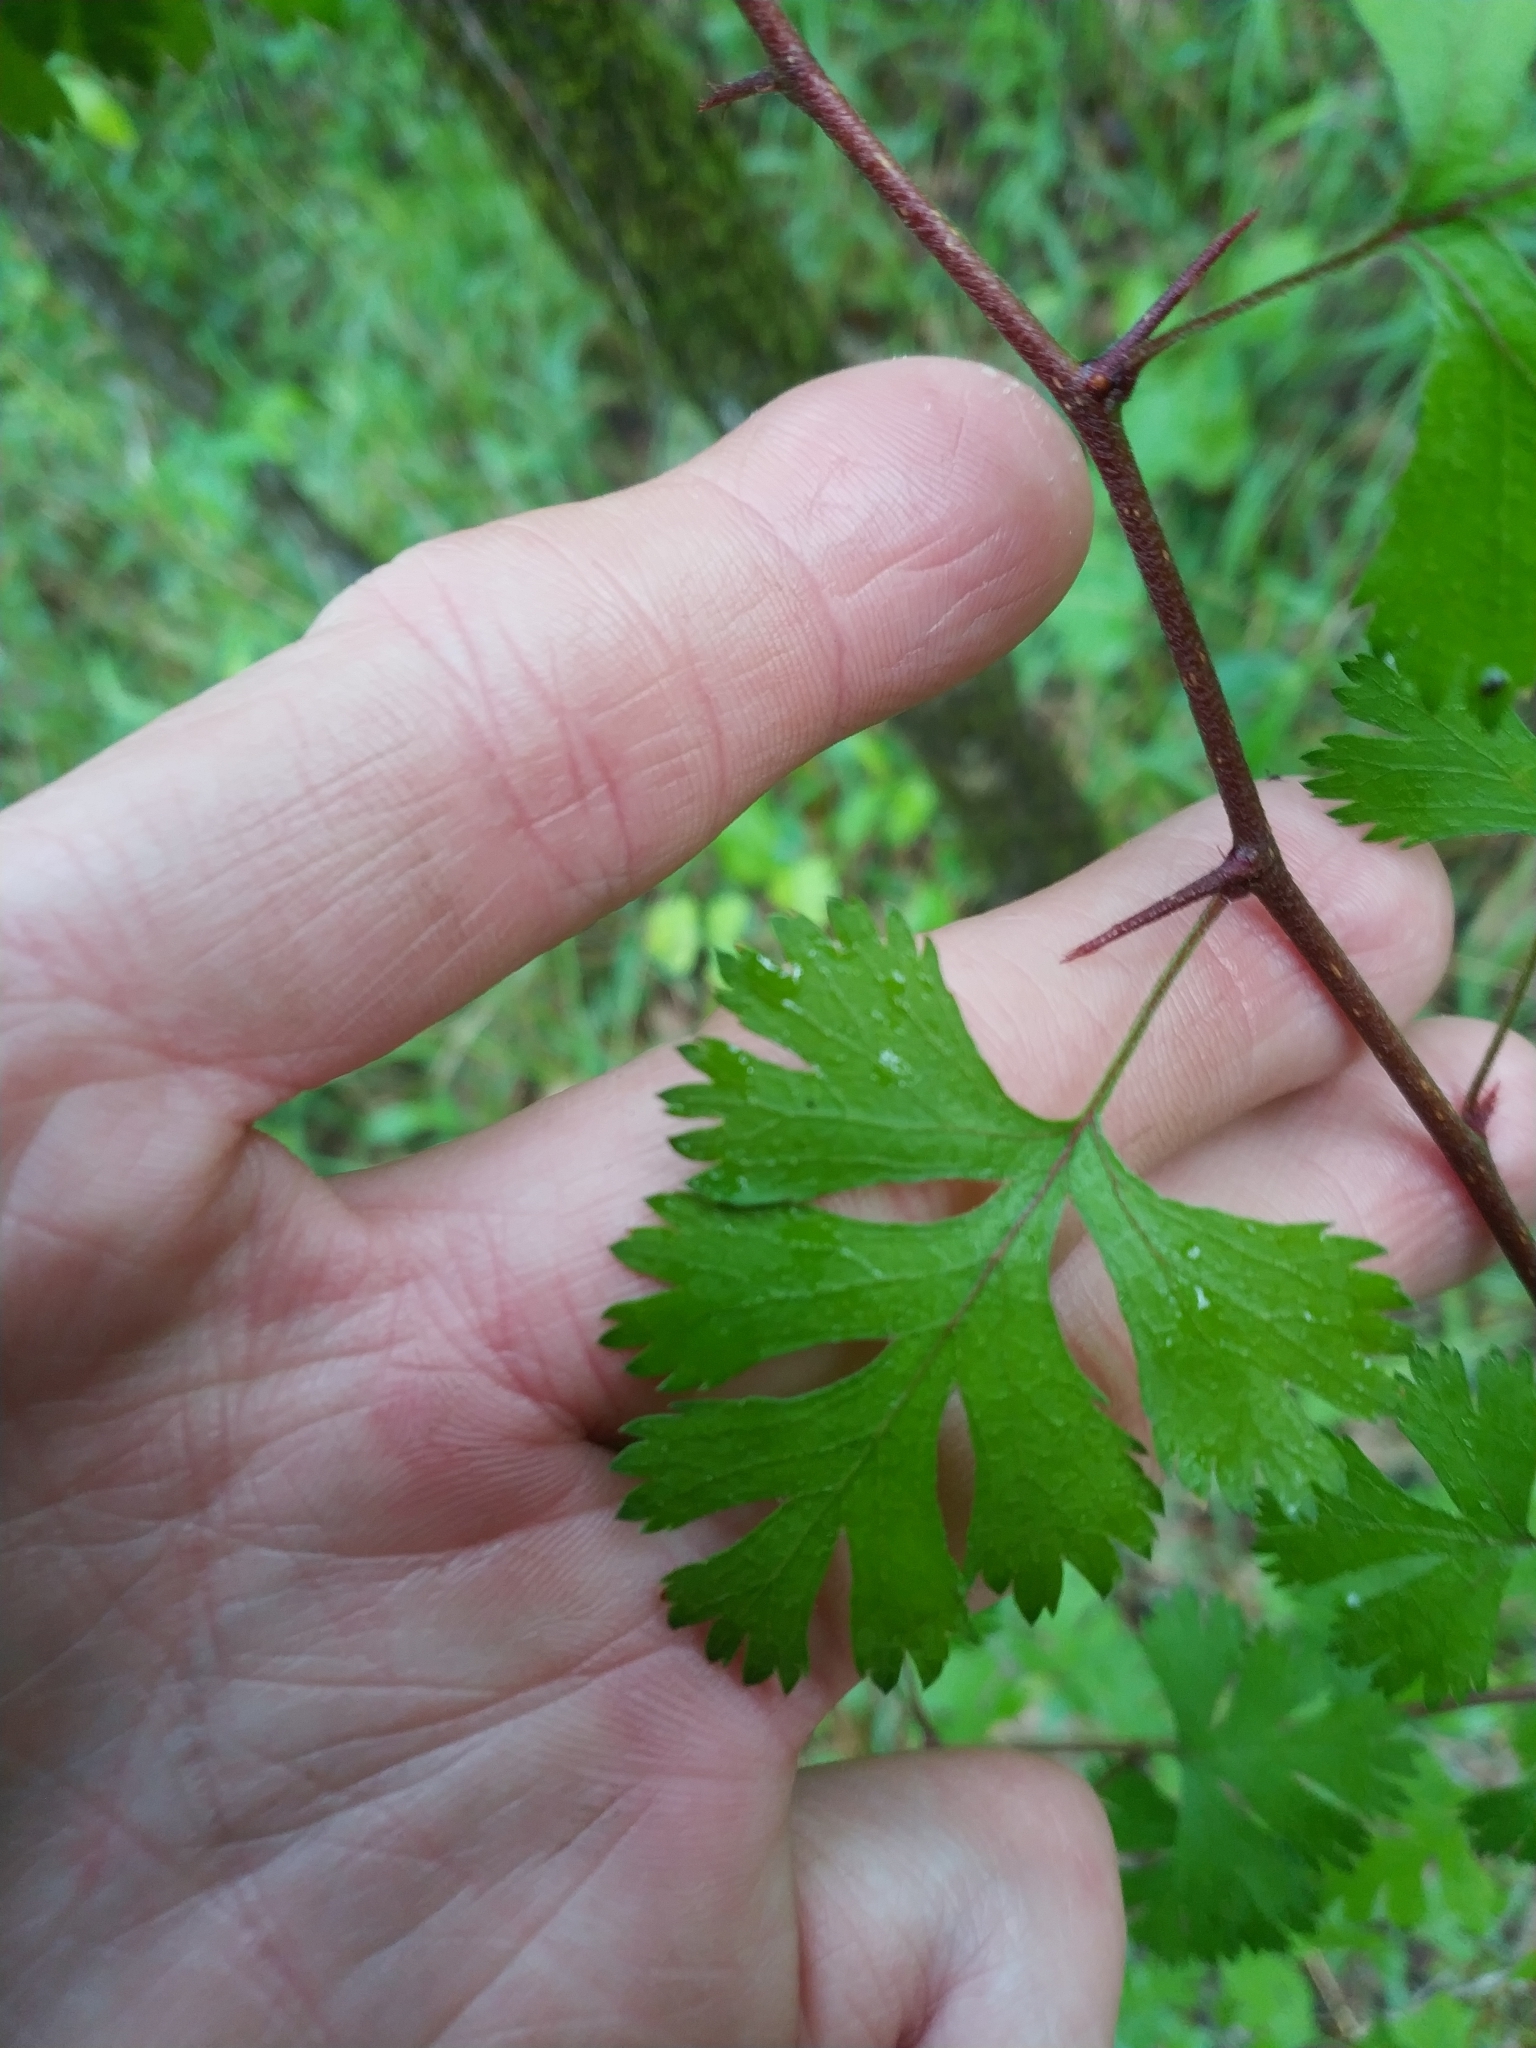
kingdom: Plantae
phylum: Tracheophyta
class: Magnoliopsida
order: Rosales
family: Rosaceae
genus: Crataegus
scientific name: Crataegus marshallii
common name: Parsley-hawthorn
